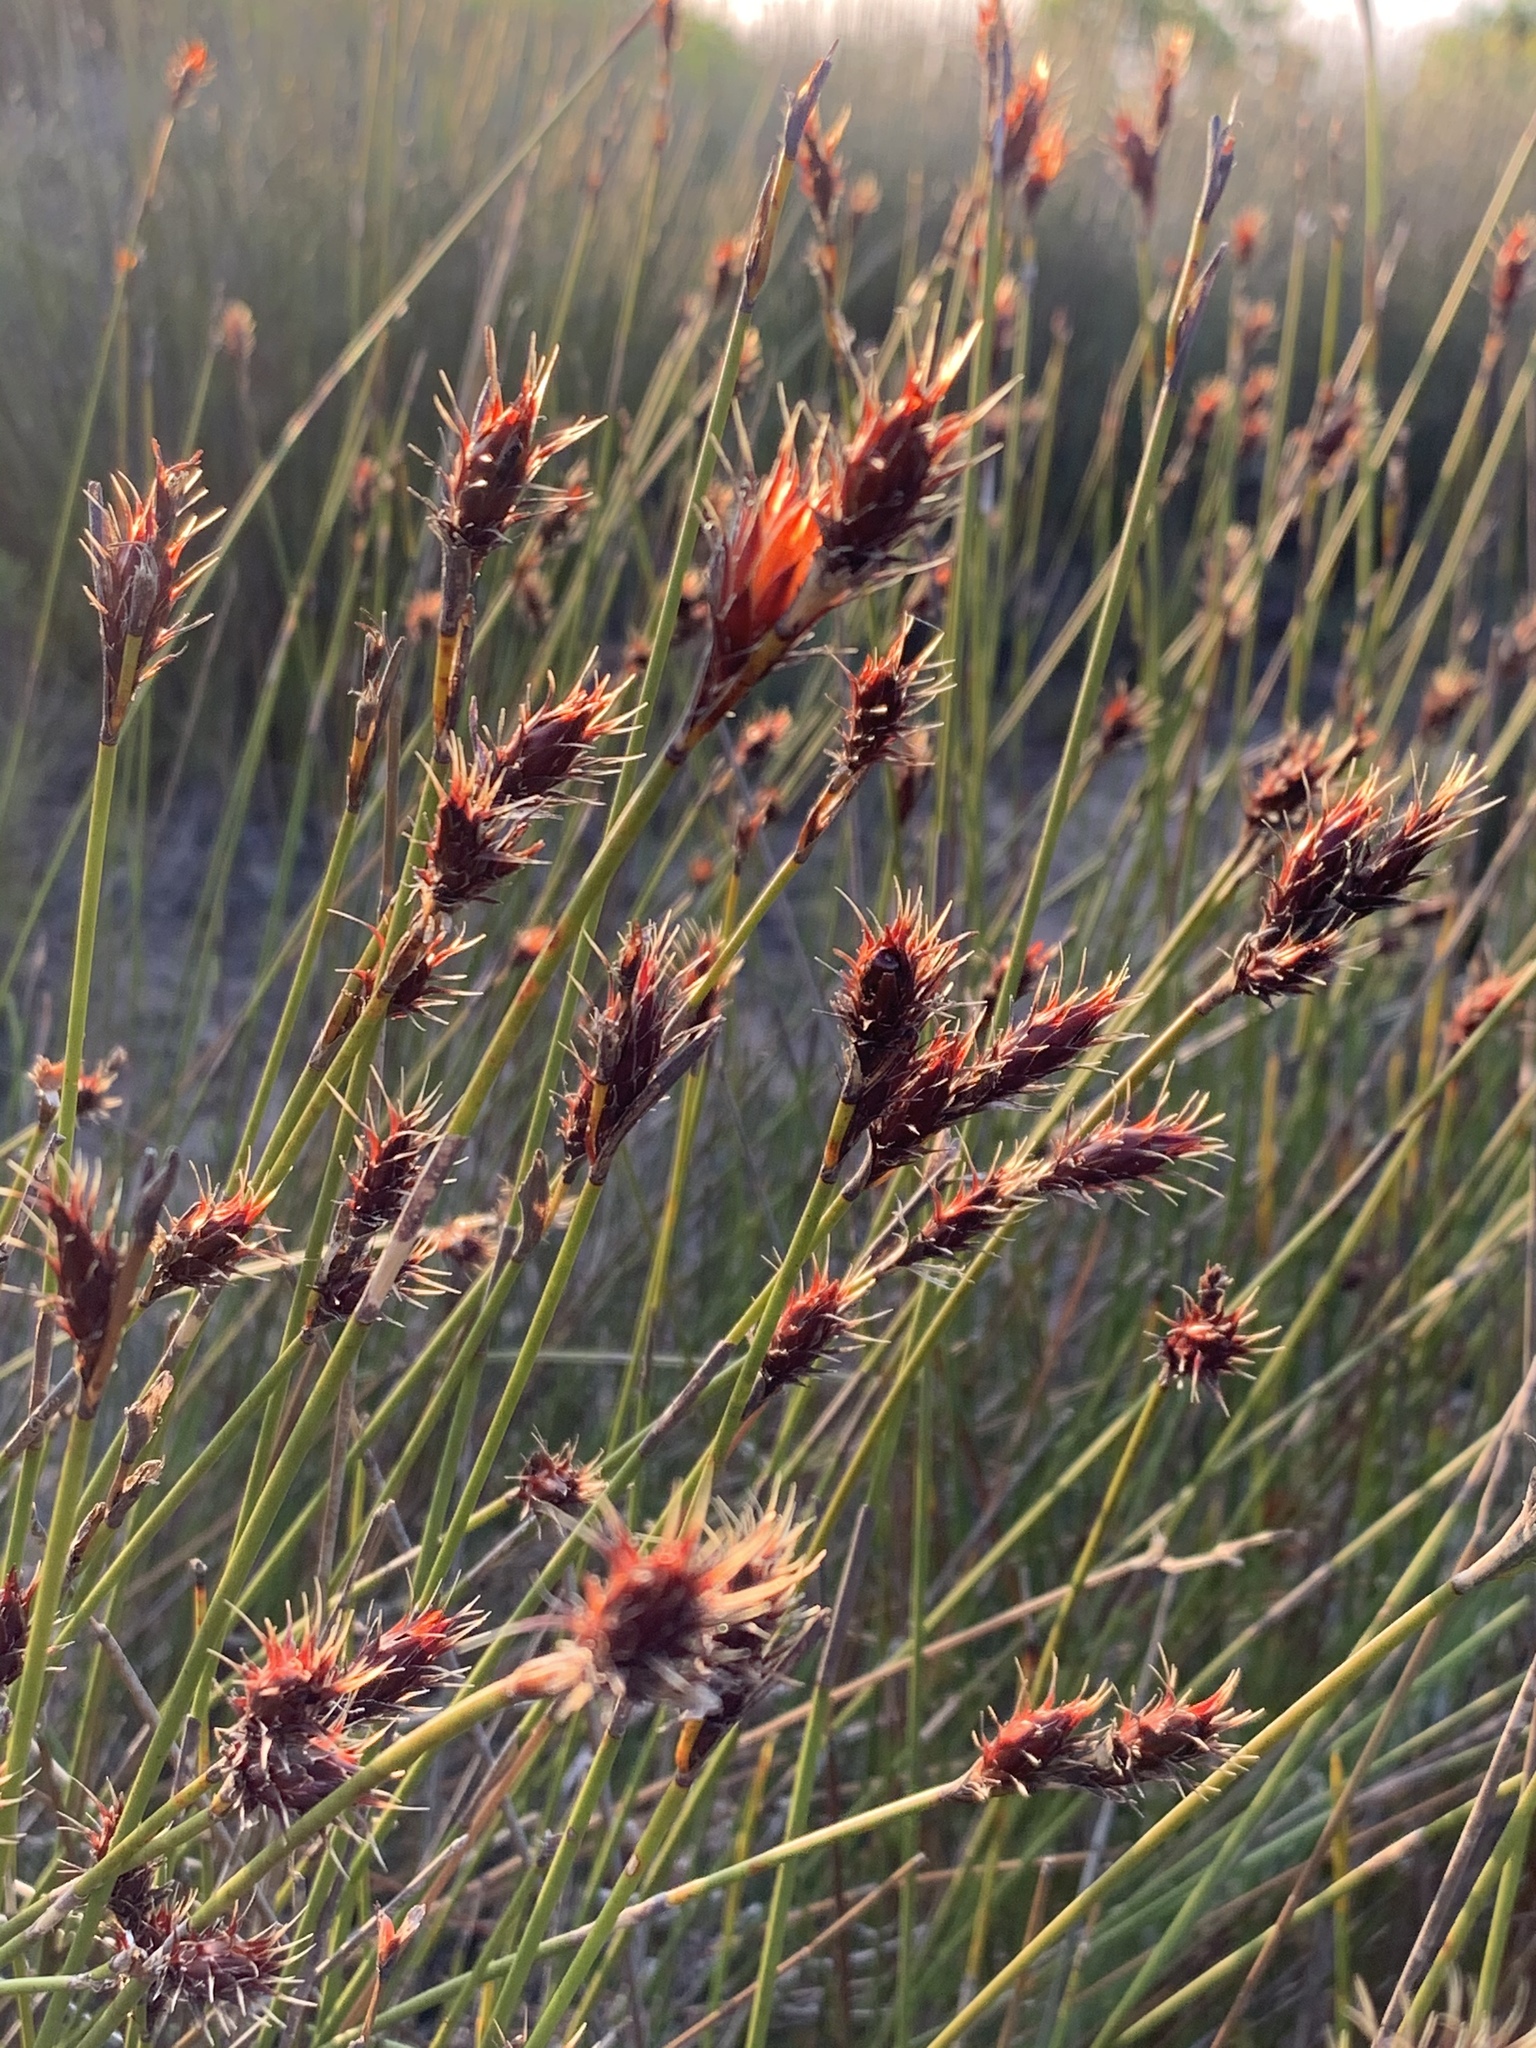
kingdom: Plantae
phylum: Tracheophyta
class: Liliopsida
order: Poales
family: Restionaceae
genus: Hypodiscus
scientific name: Hypodiscus aristatus
